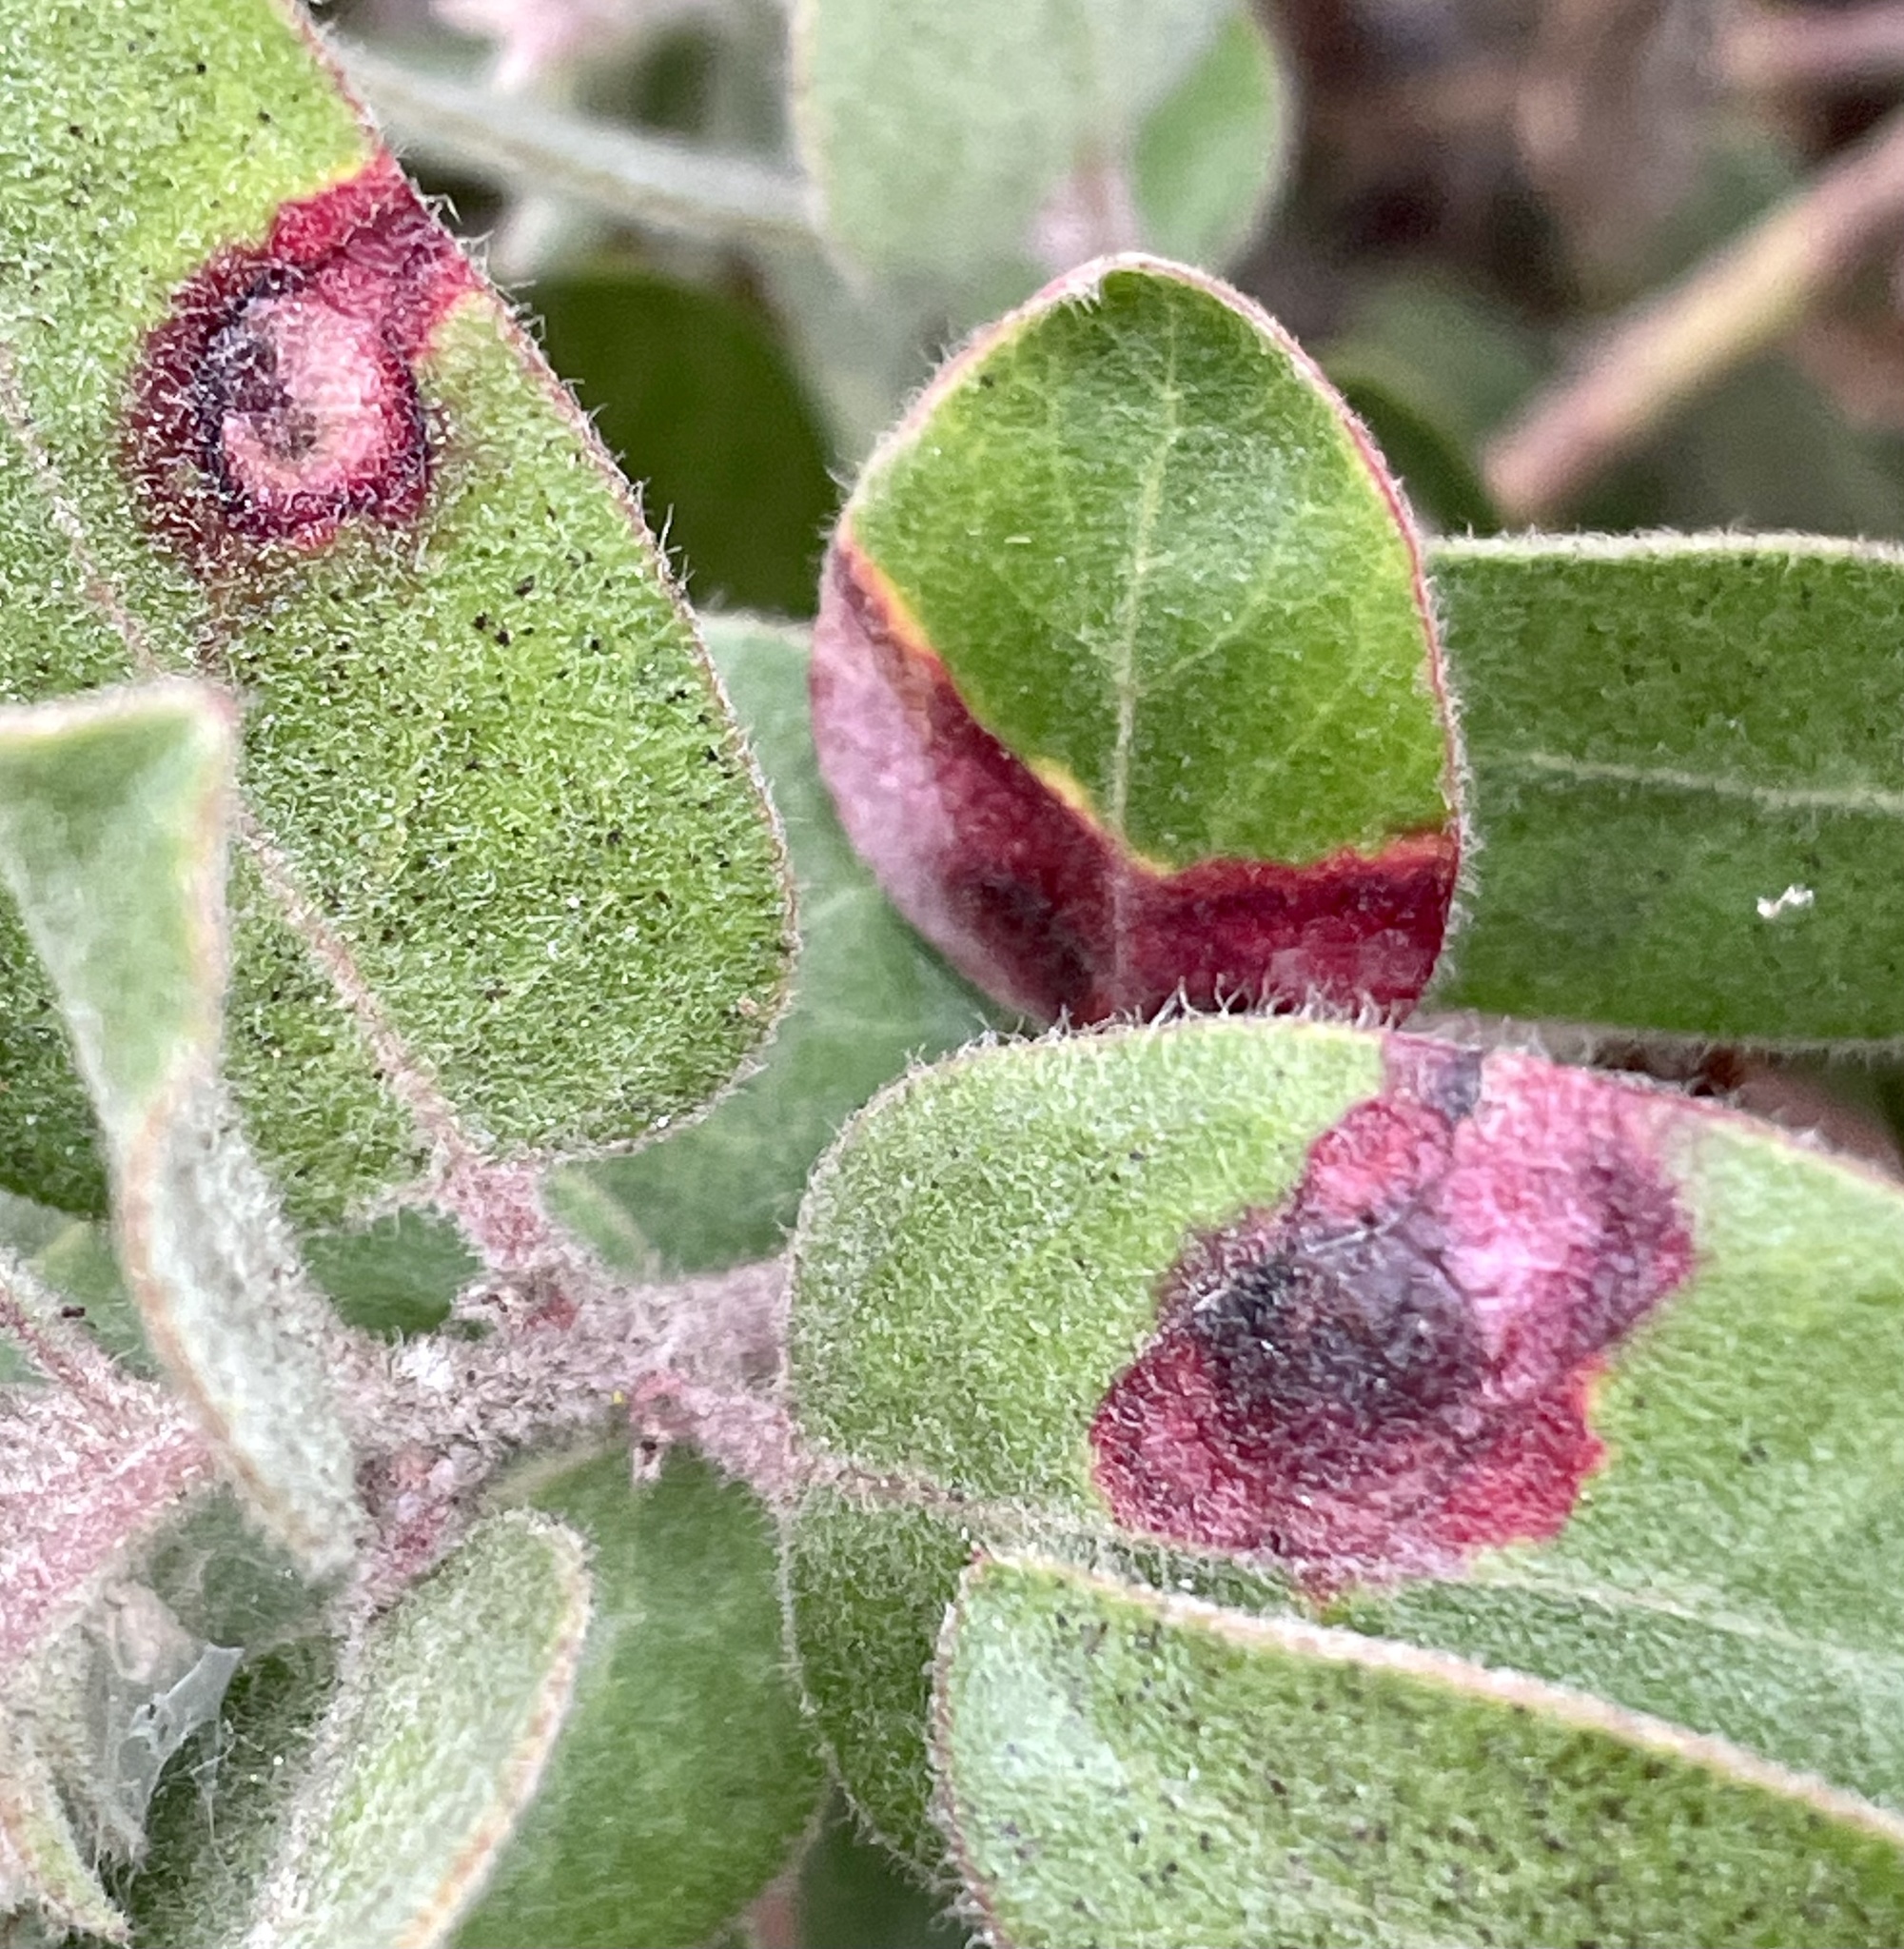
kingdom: Plantae
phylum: Tracheophyta
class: Magnoliopsida
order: Ericales
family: Ericaceae
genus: Arctostaphylos
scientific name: Arctostaphylos tomentosa
